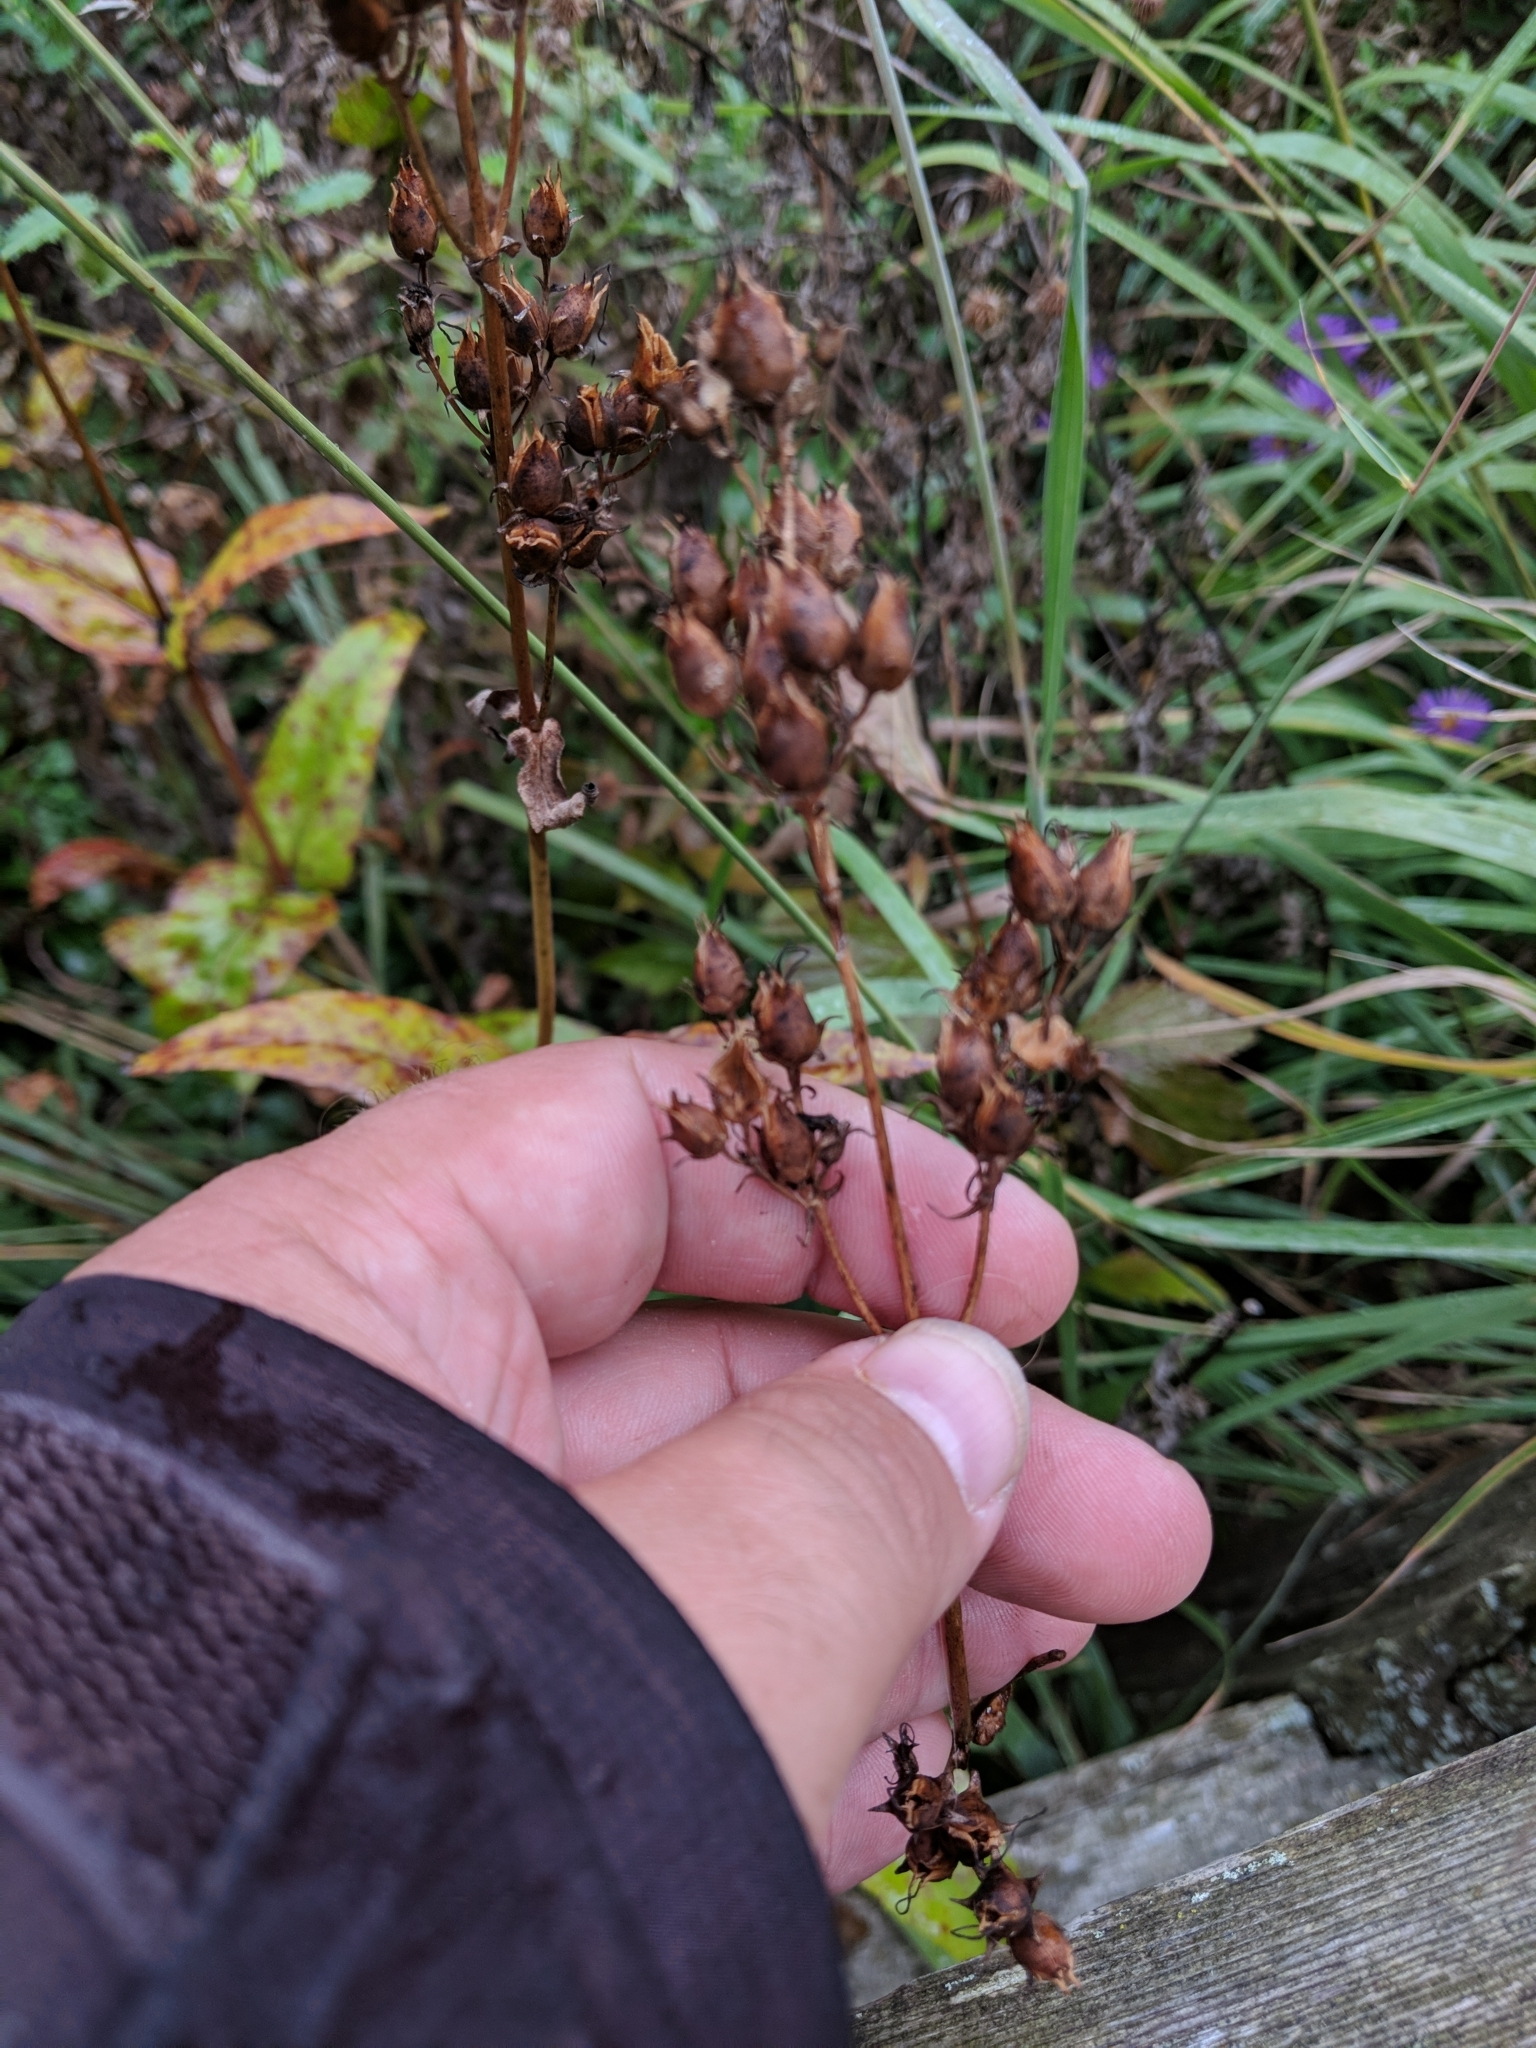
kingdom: Plantae
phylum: Tracheophyta
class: Magnoliopsida
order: Lamiales
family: Plantaginaceae
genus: Penstemon
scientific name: Penstemon digitalis
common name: Foxglove beardtongue
